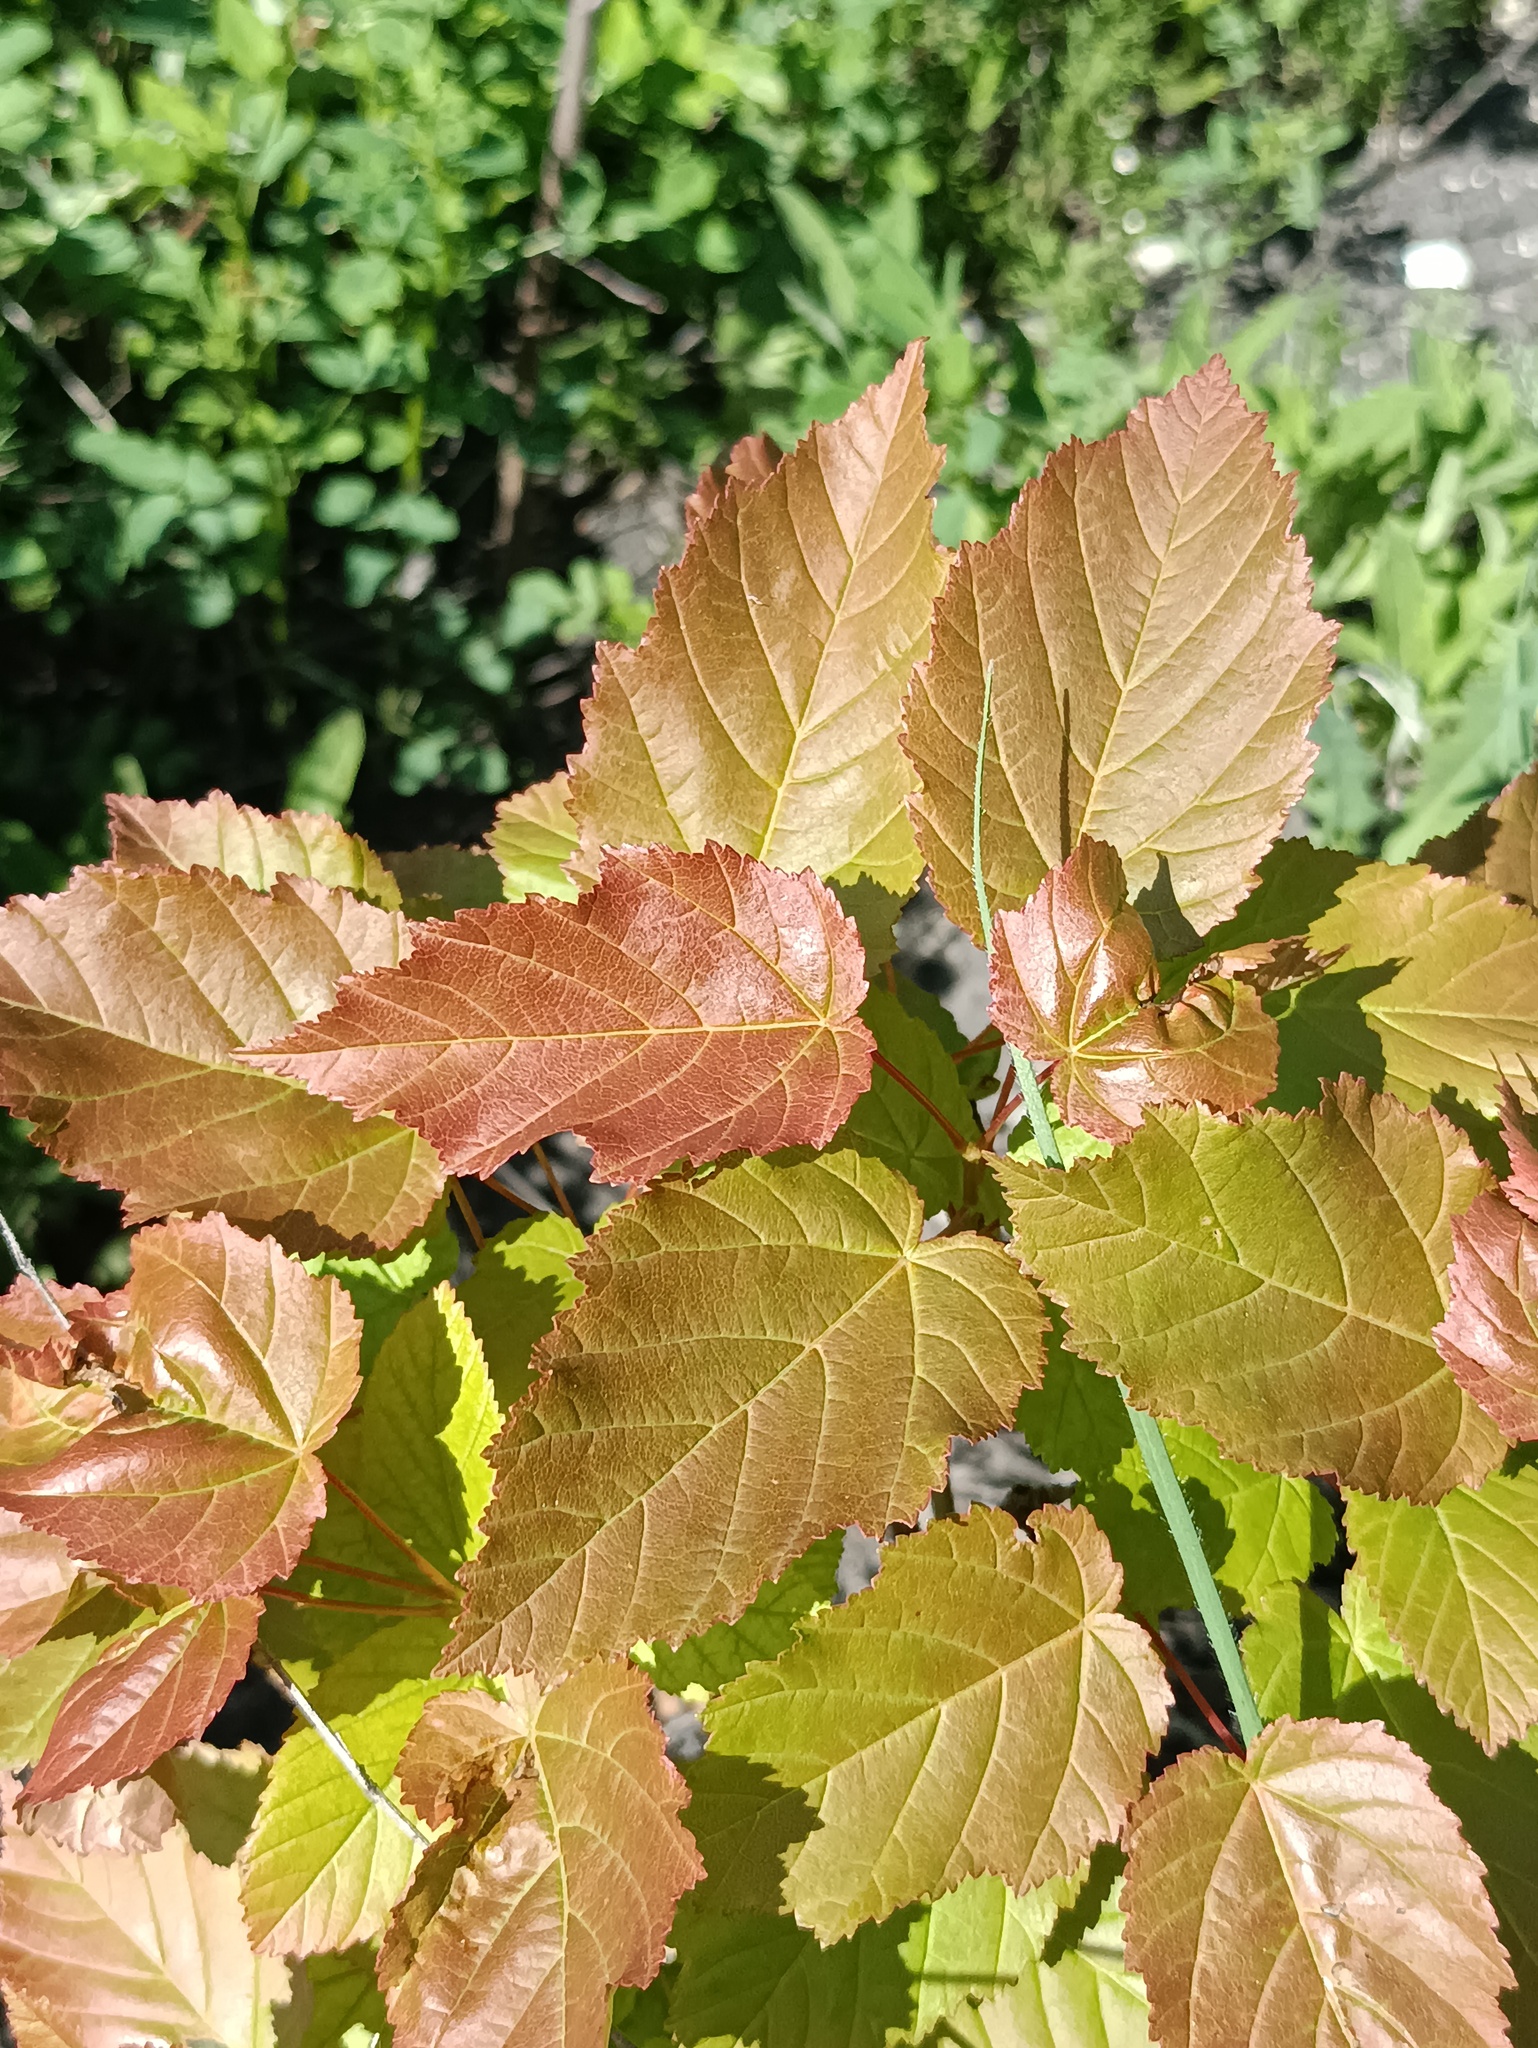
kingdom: Plantae
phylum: Tracheophyta
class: Magnoliopsida
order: Sapindales
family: Sapindaceae
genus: Acer
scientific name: Acer tataricum
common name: Tartar maple
